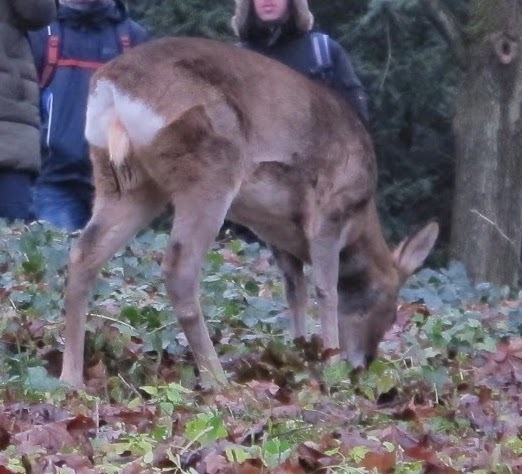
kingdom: Animalia
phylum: Chordata
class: Mammalia
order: Artiodactyla
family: Cervidae
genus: Capreolus
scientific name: Capreolus capreolus
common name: Western roe deer
